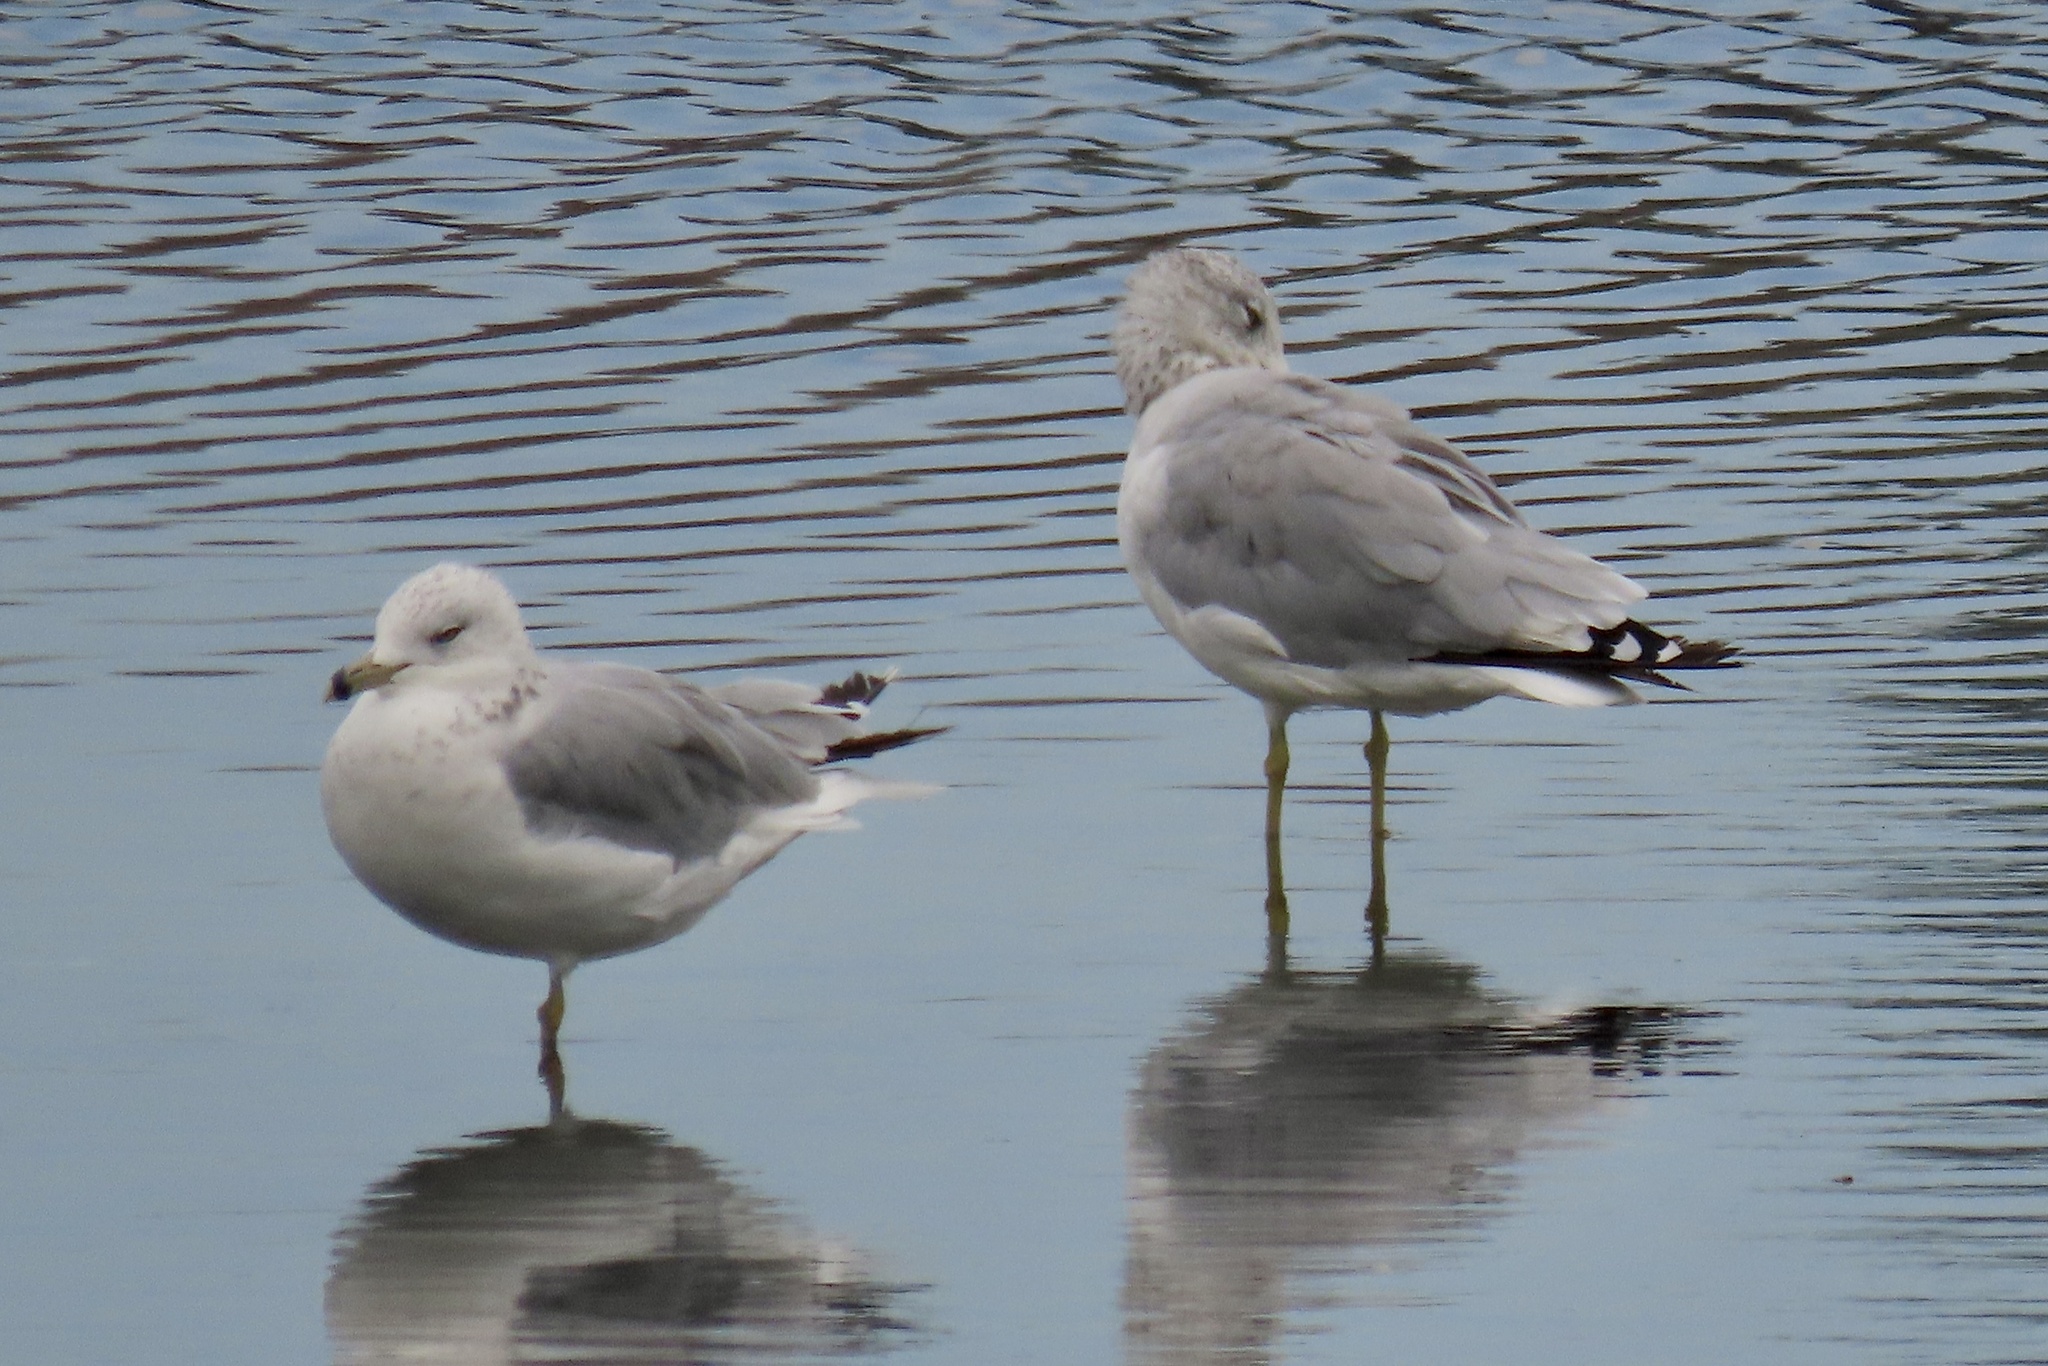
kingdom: Animalia
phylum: Chordata
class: Aves
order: Charadriiformes
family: Laridae
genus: Larus
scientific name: Larus delawarensis
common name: Ring-billed gull
